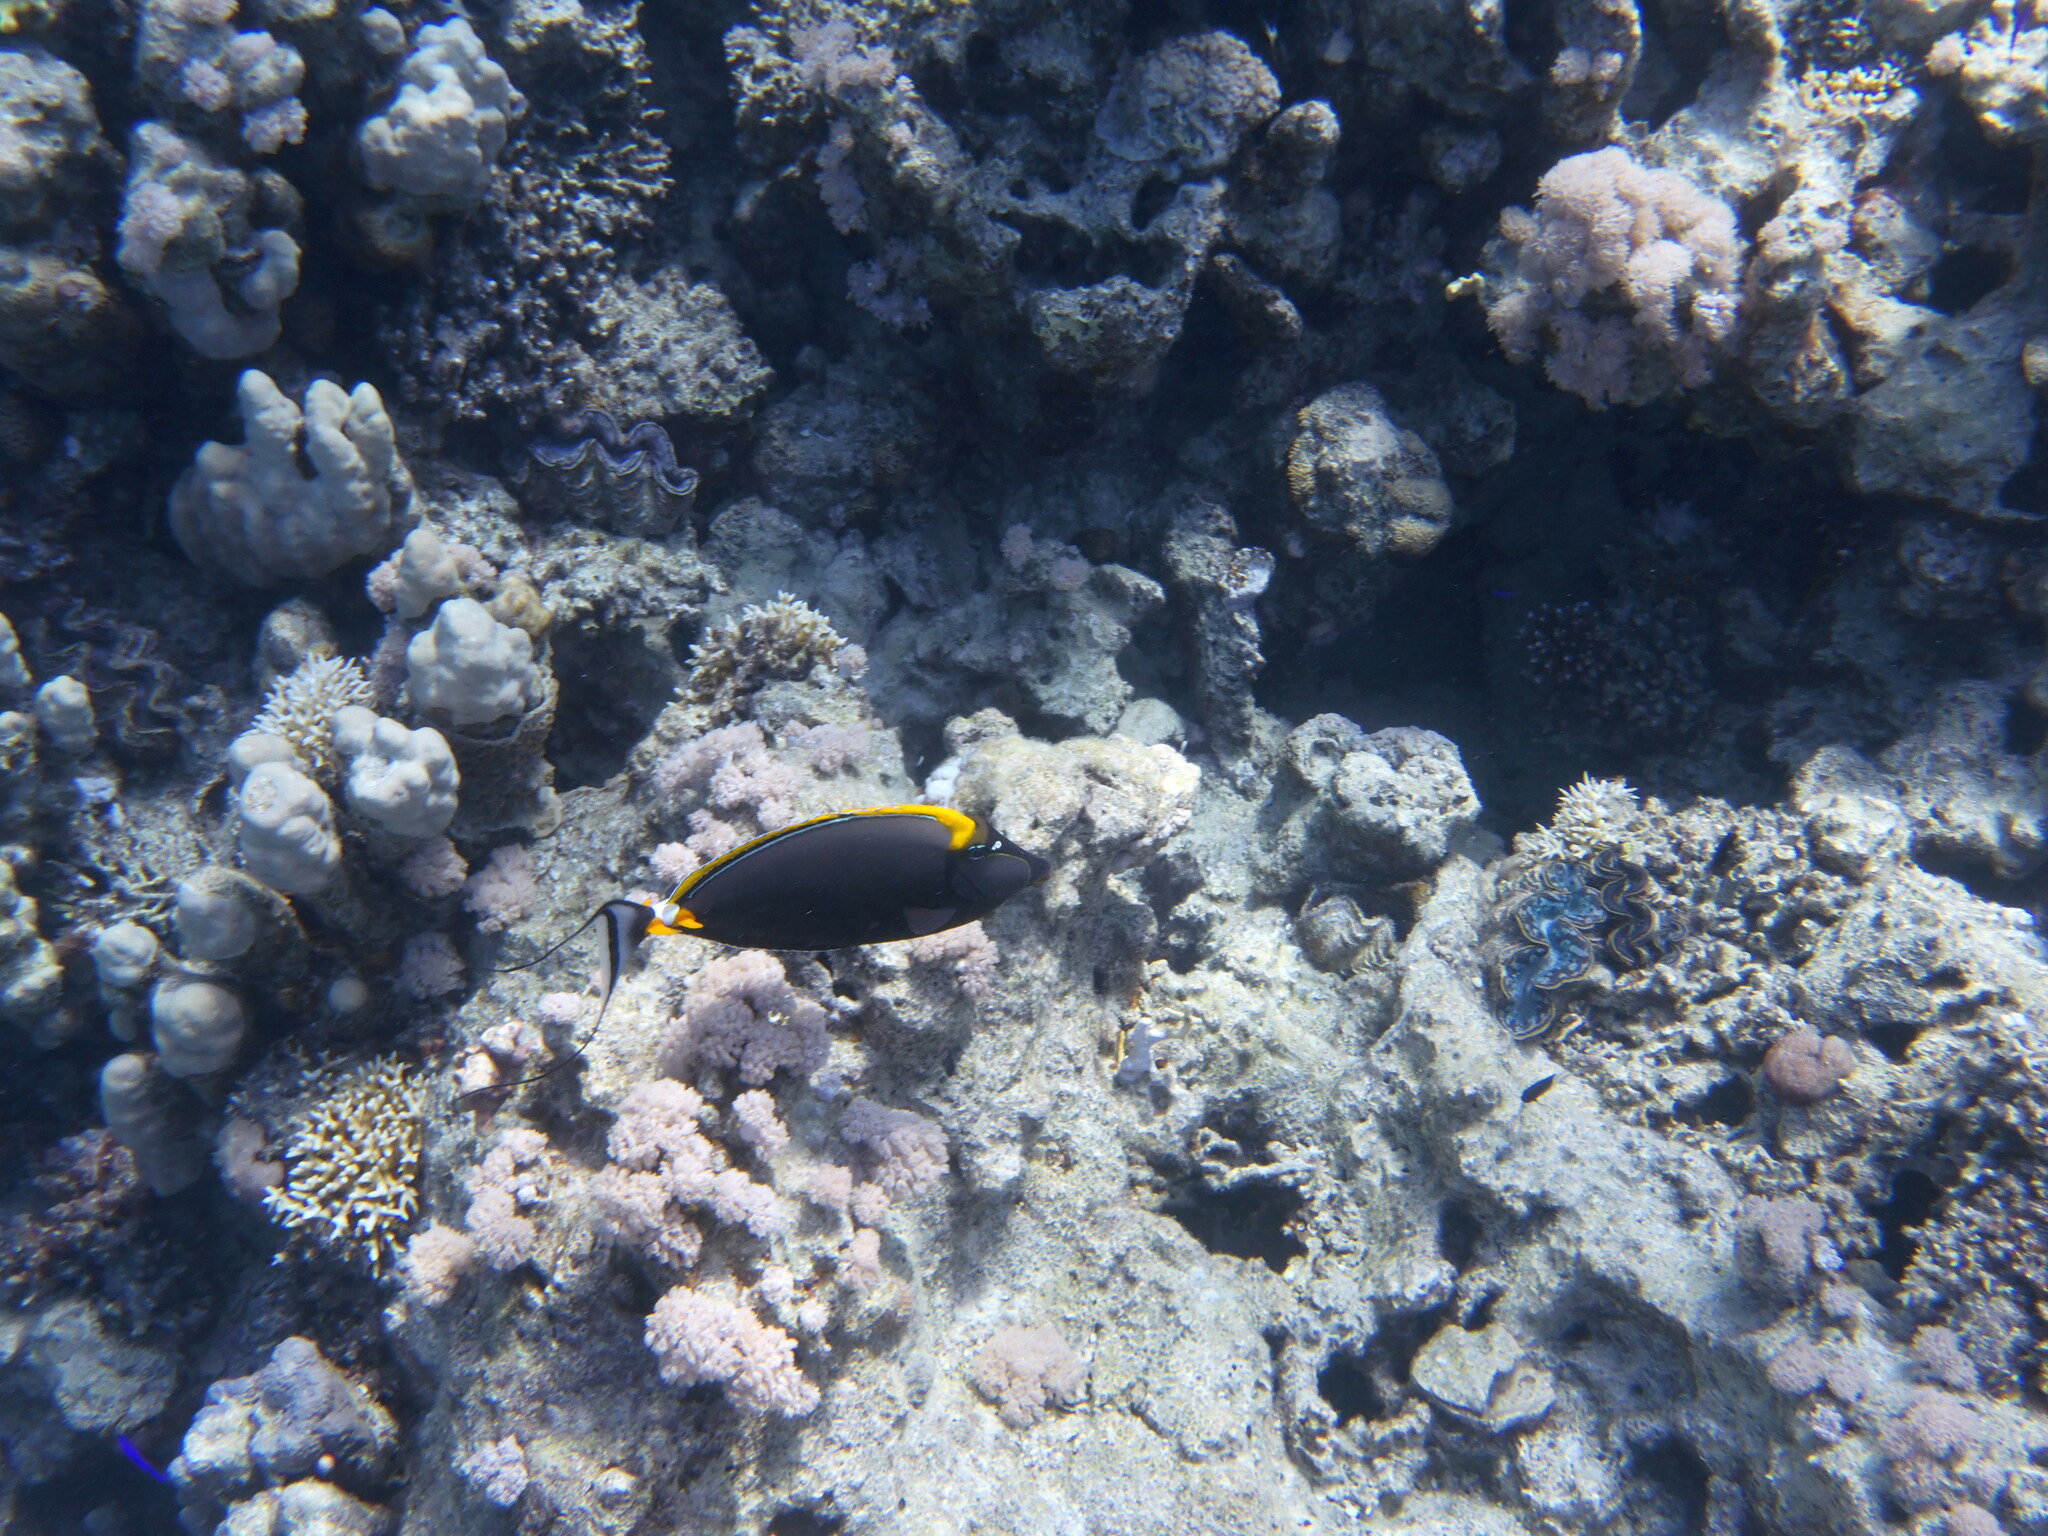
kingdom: Animalia
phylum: Chordata
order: Perciformes
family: Acanthuridae
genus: Naso
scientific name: Naso elegans
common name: Orangespine unicornfish
